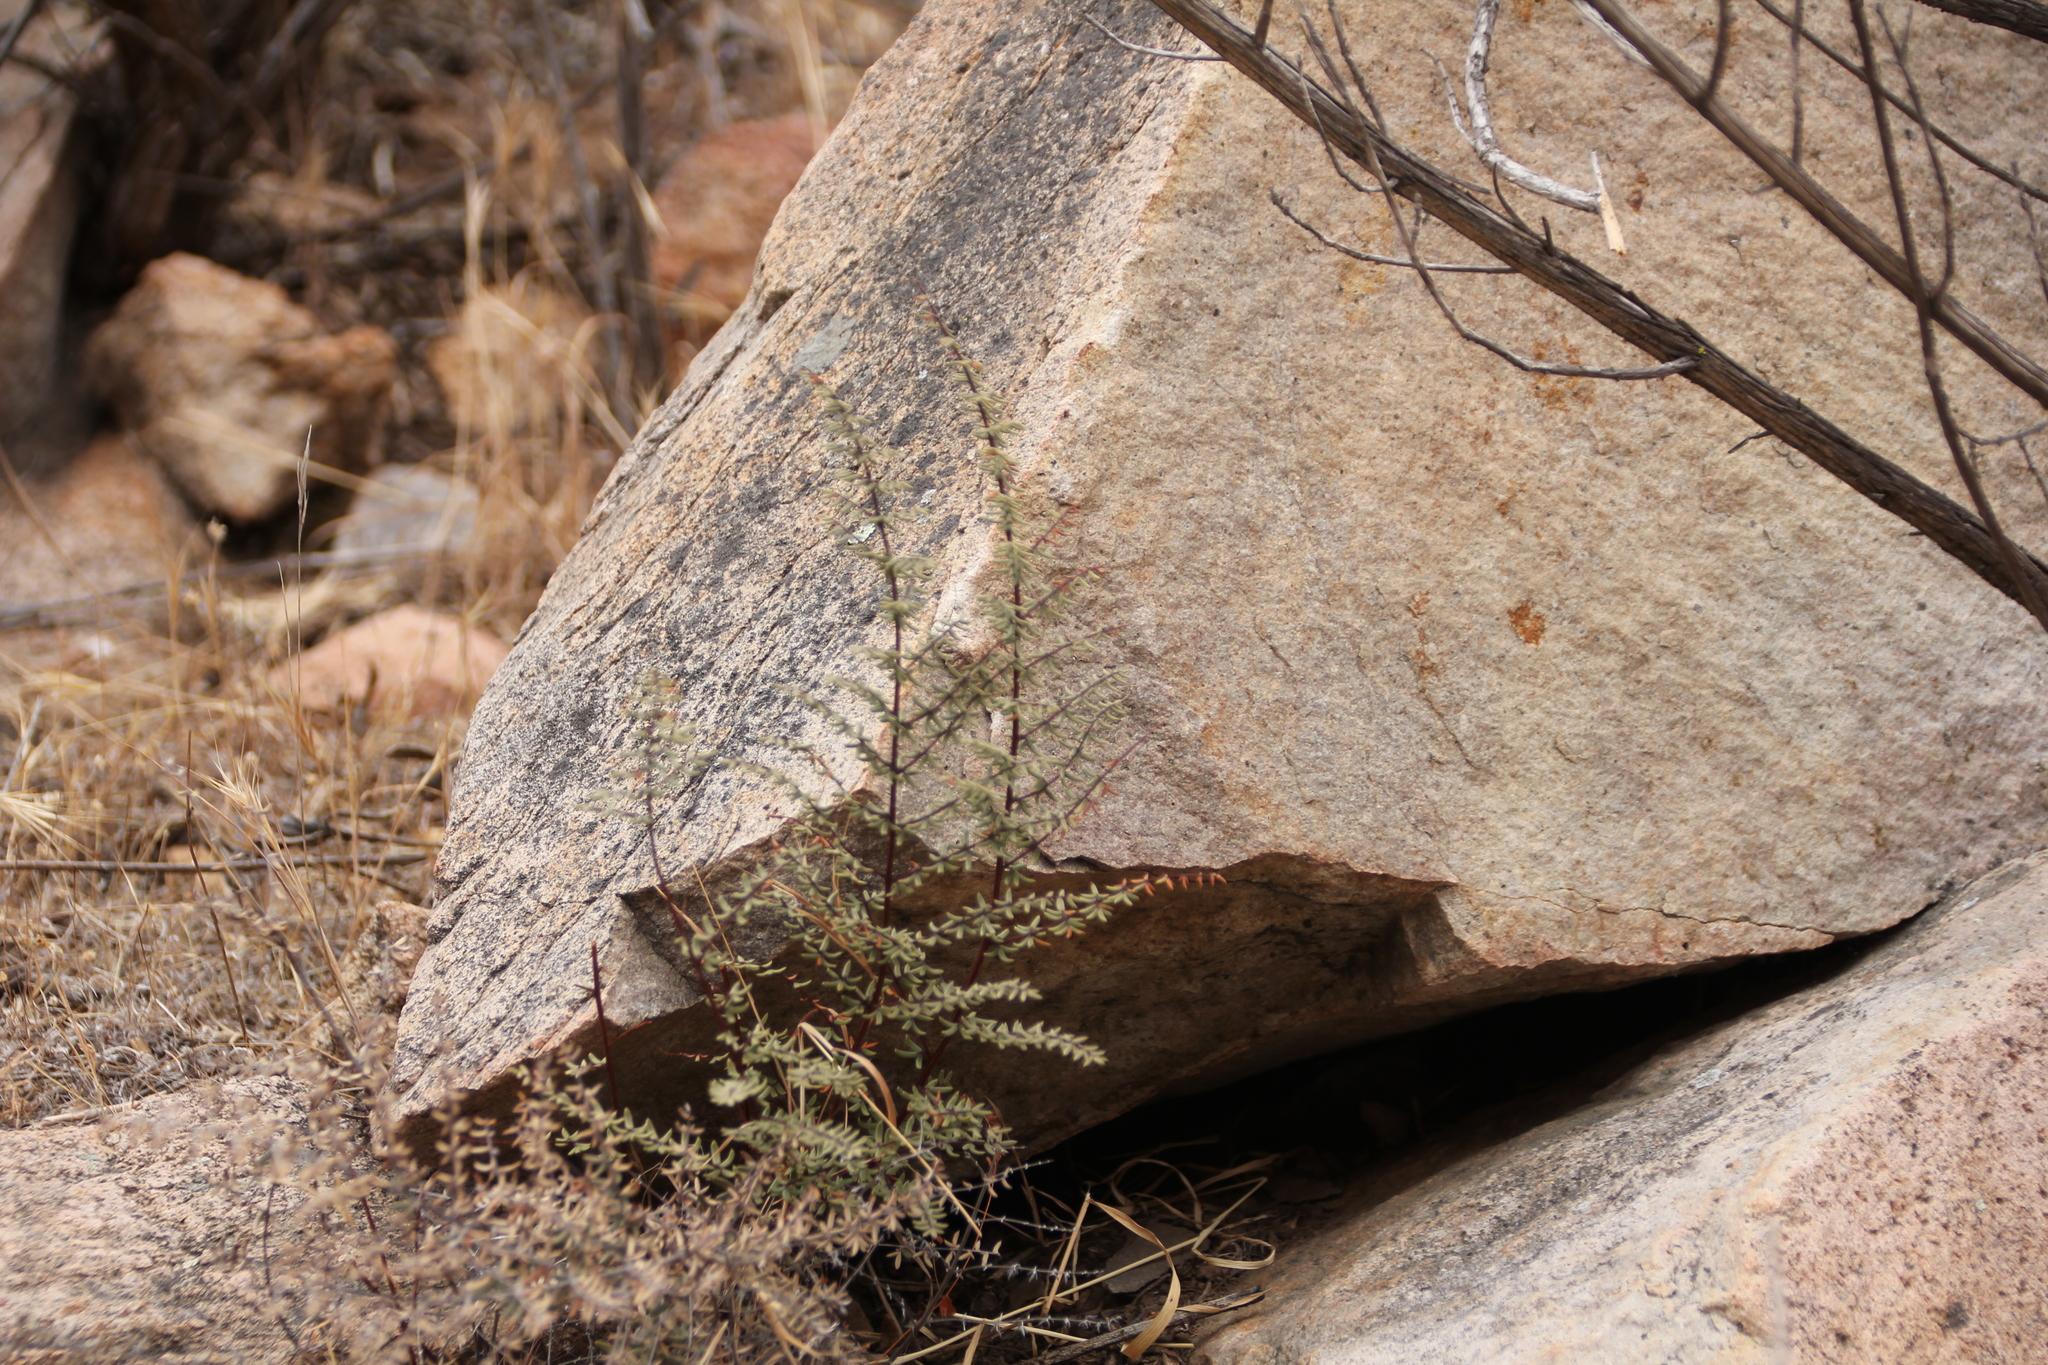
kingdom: Plantae
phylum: Tracheophyta
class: Polypodiopsida
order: Polypodiales
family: Pteridaceae
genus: Pellaea
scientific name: Pellaea mucronata
